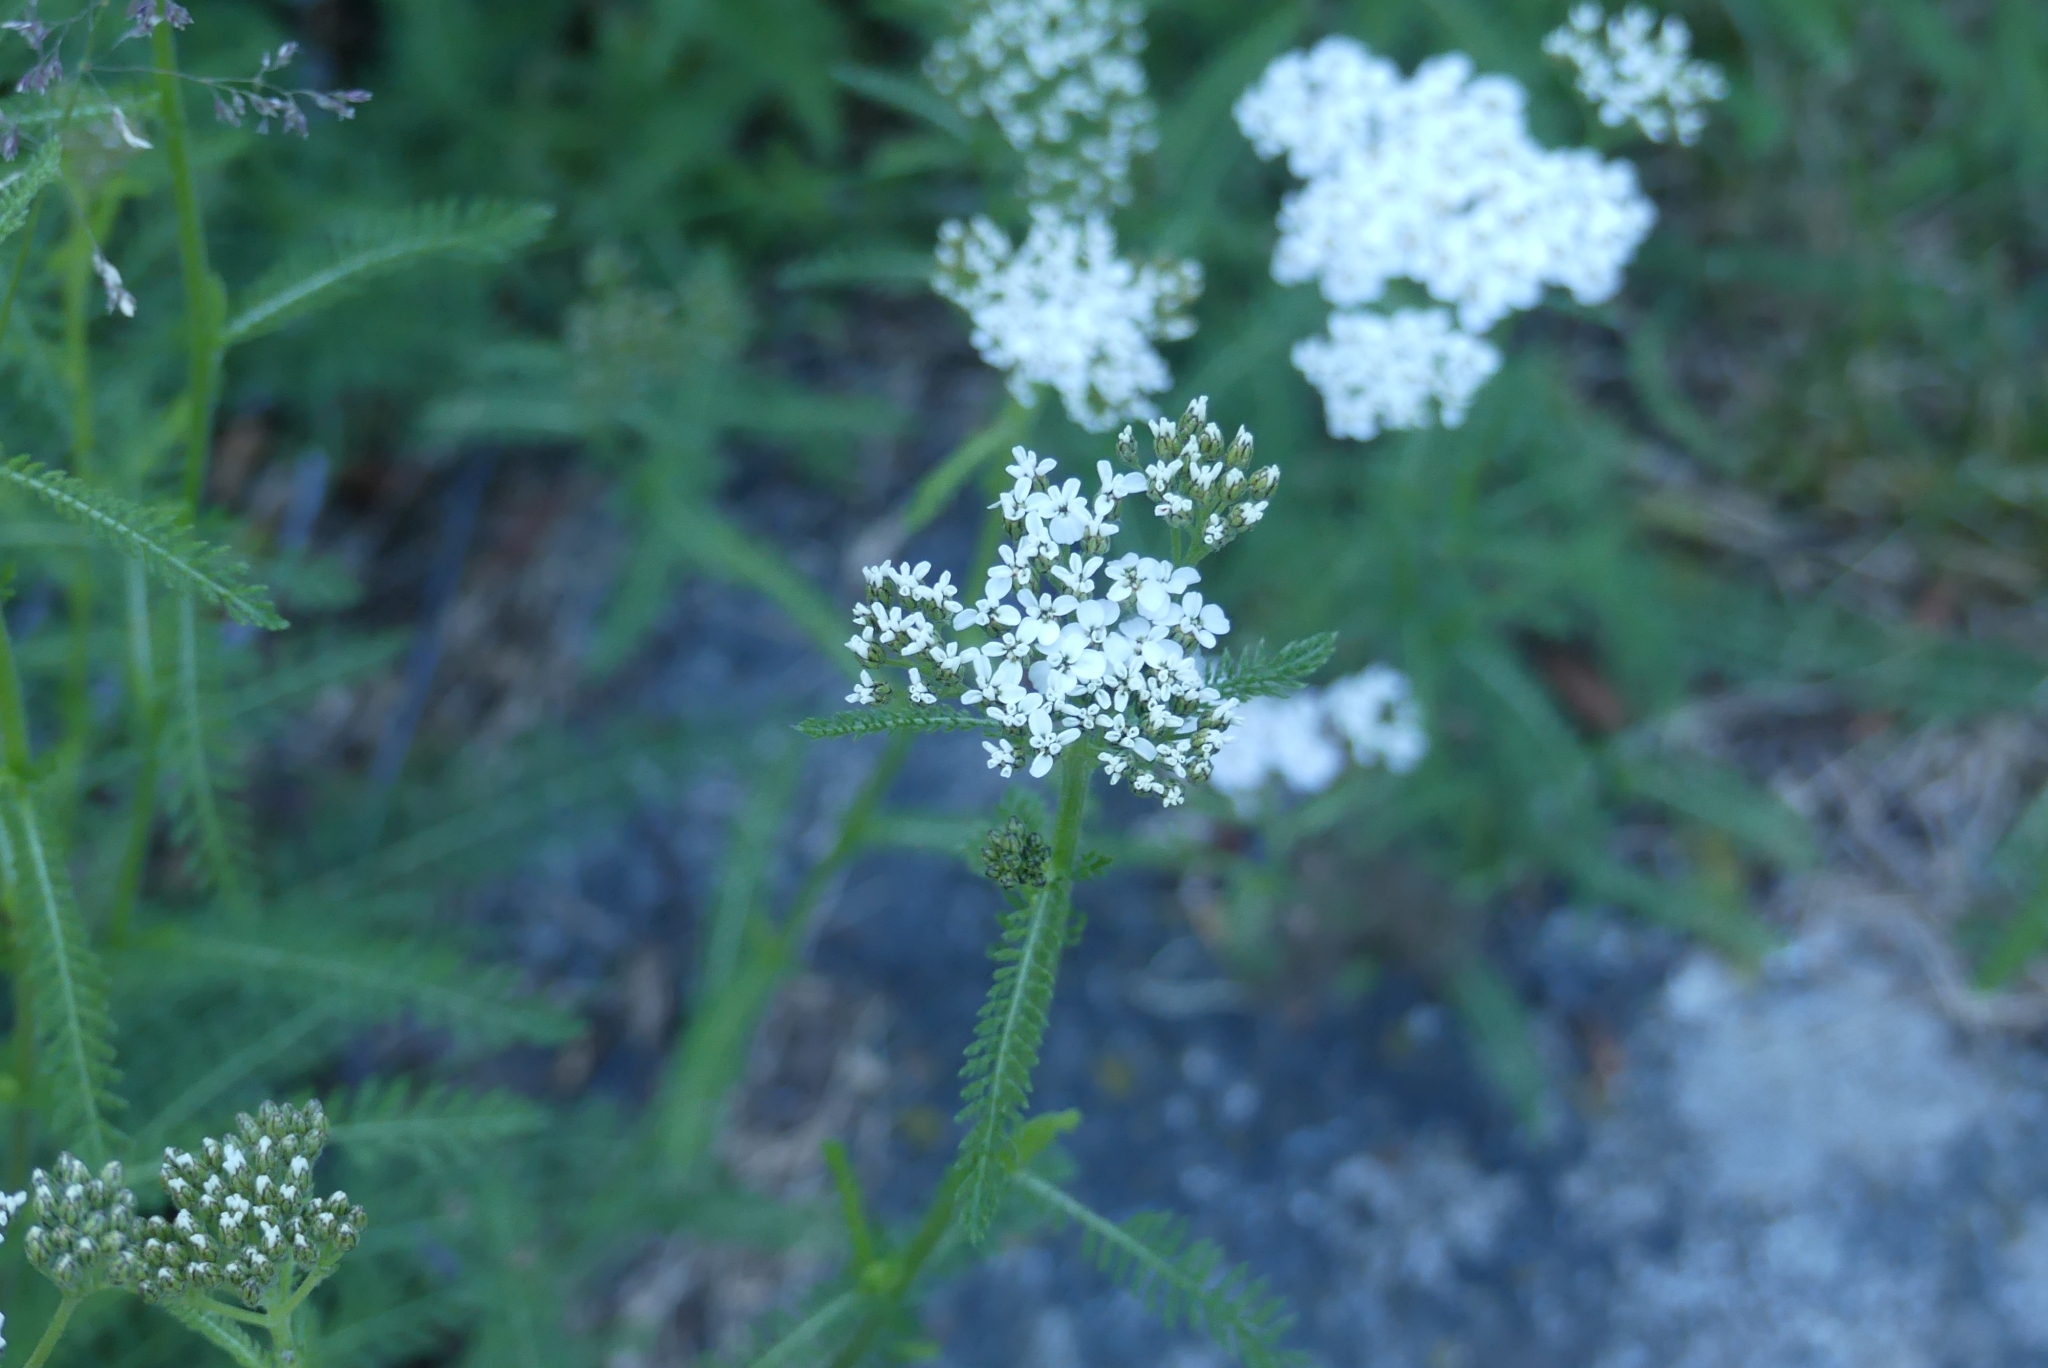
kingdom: Plantae
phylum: Tracheophyta
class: Magnoliopsida
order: Asterales
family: Asteraceae
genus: Achillea
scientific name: Achillea millefolium
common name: Yarrow
